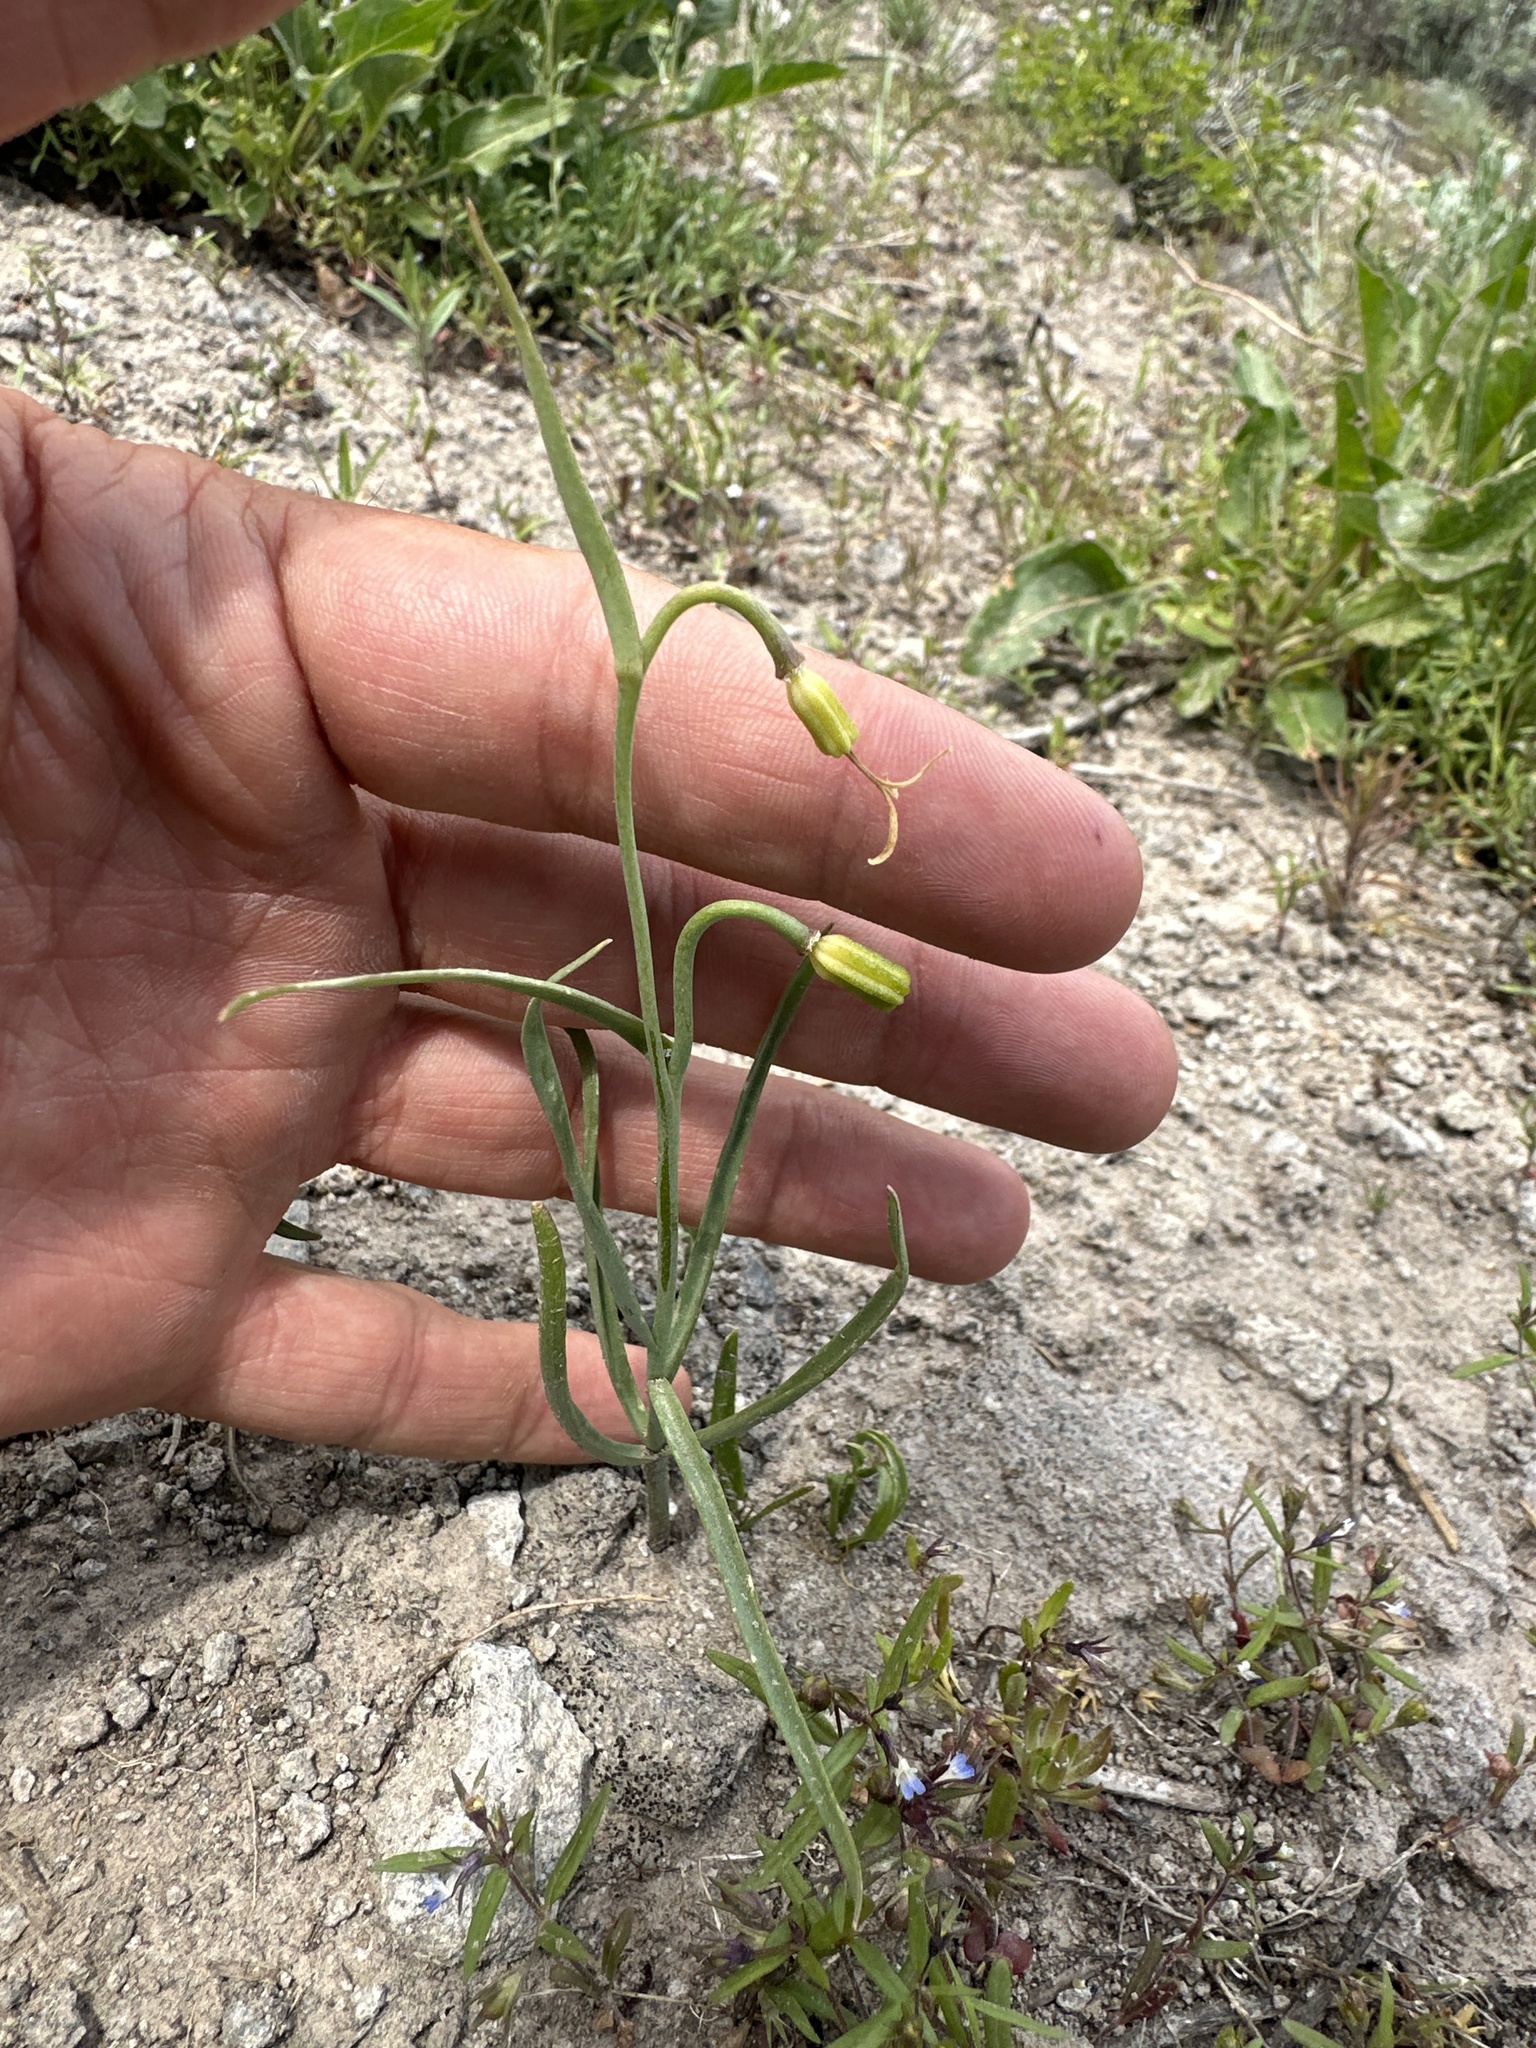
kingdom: Plantae
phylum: Tracheophyta
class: Liliopsida
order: Liliales
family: Liliaceae
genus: Fritillaria
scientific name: Fritillaria atropurpurea
